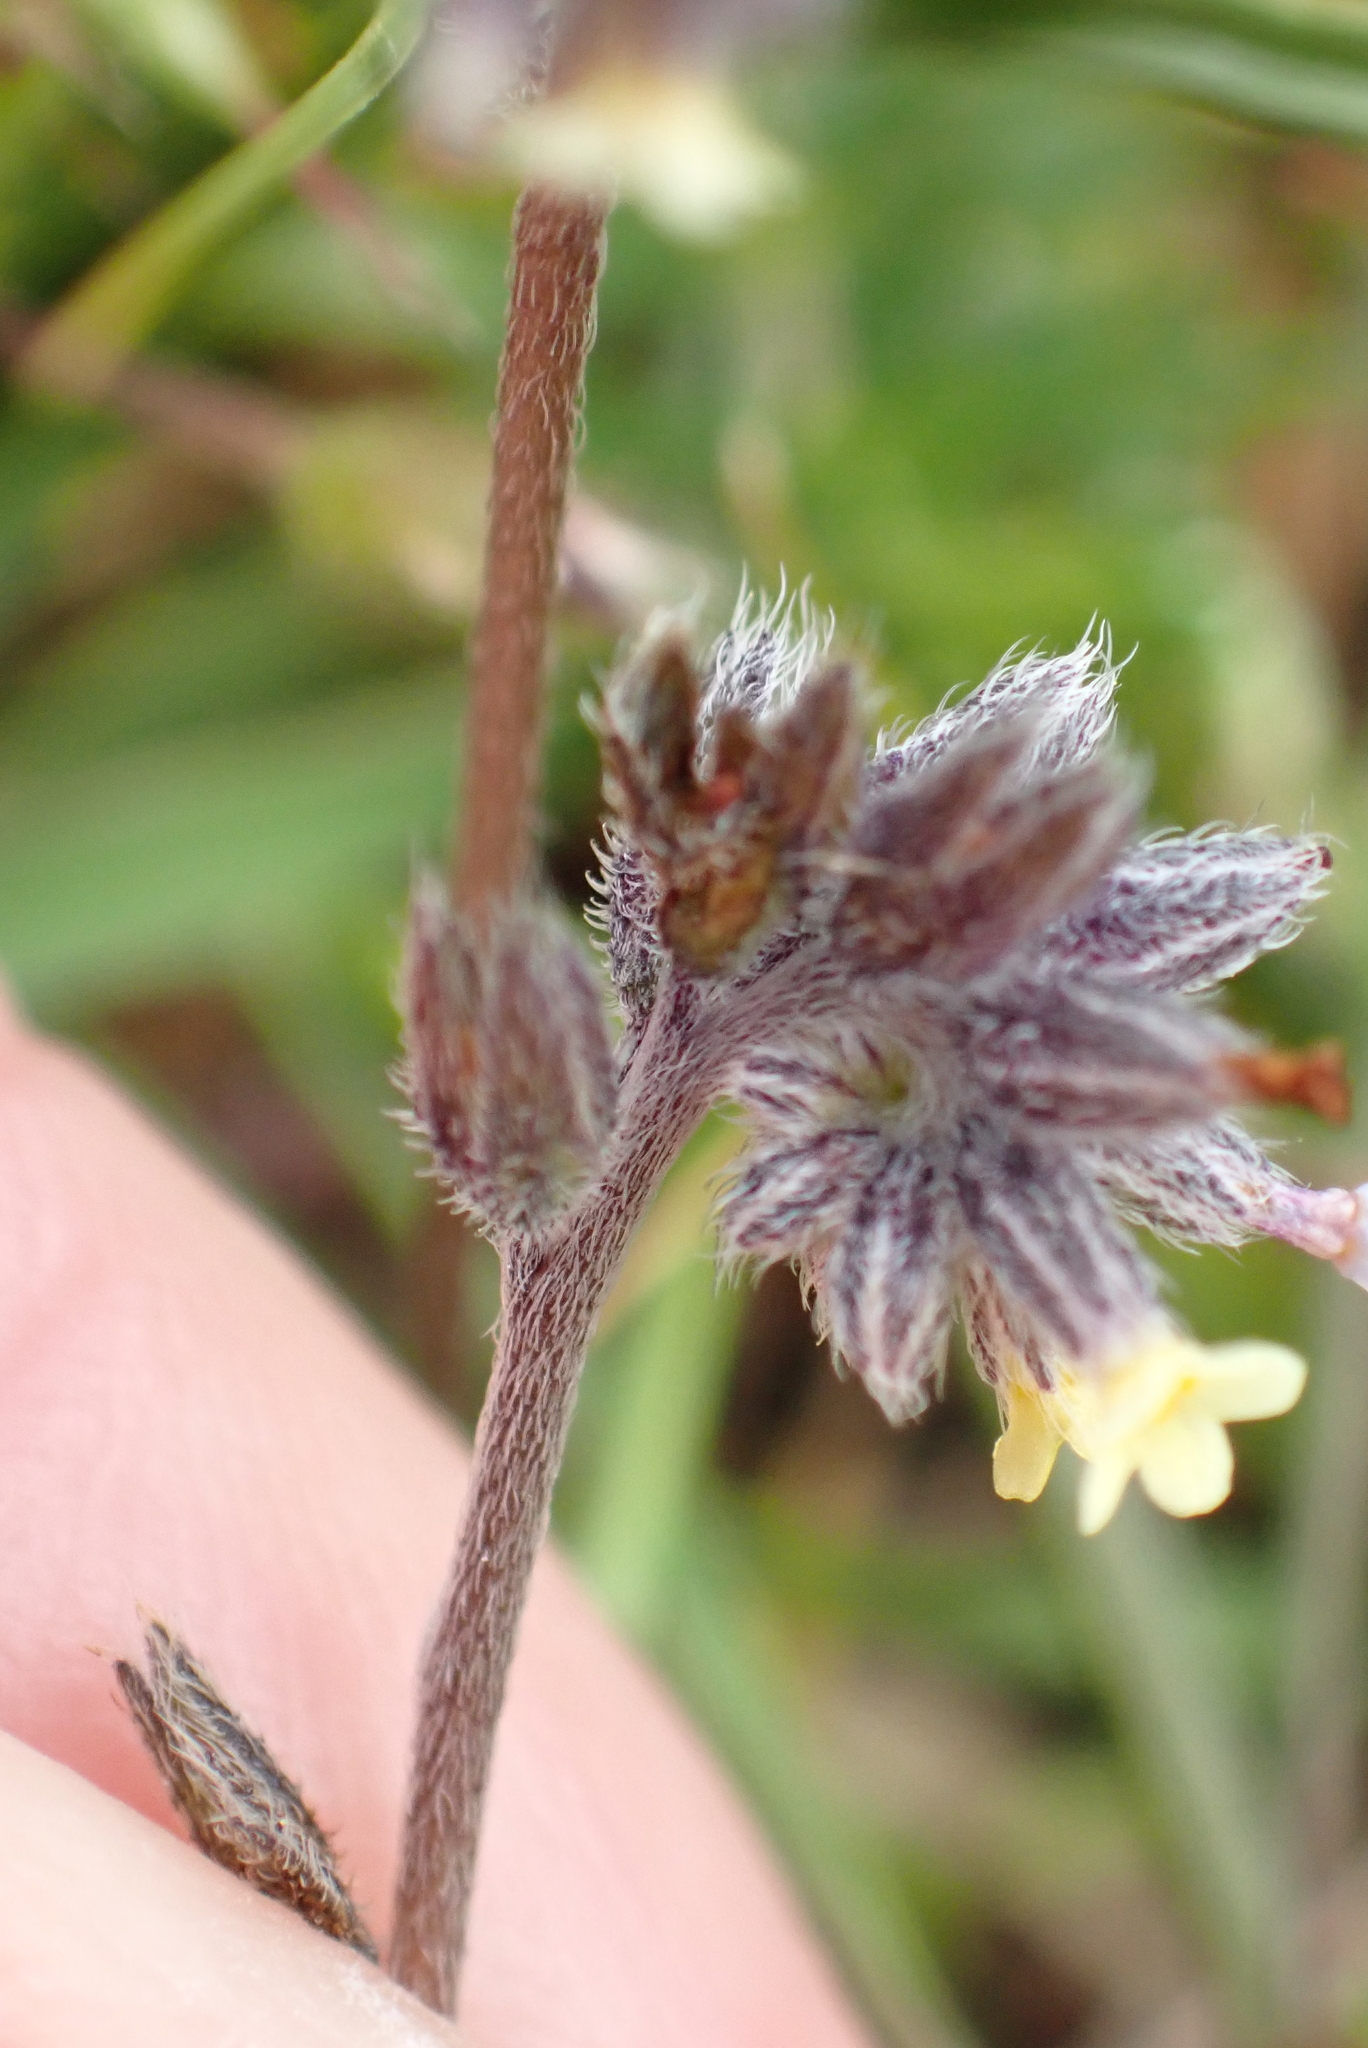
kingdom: Plantae
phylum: Tracheophyta
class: Magnoliopsida
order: Boraginales
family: Boraginaceae
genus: Myosotis
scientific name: Myosotis discolor
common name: Changing forget-me-not
